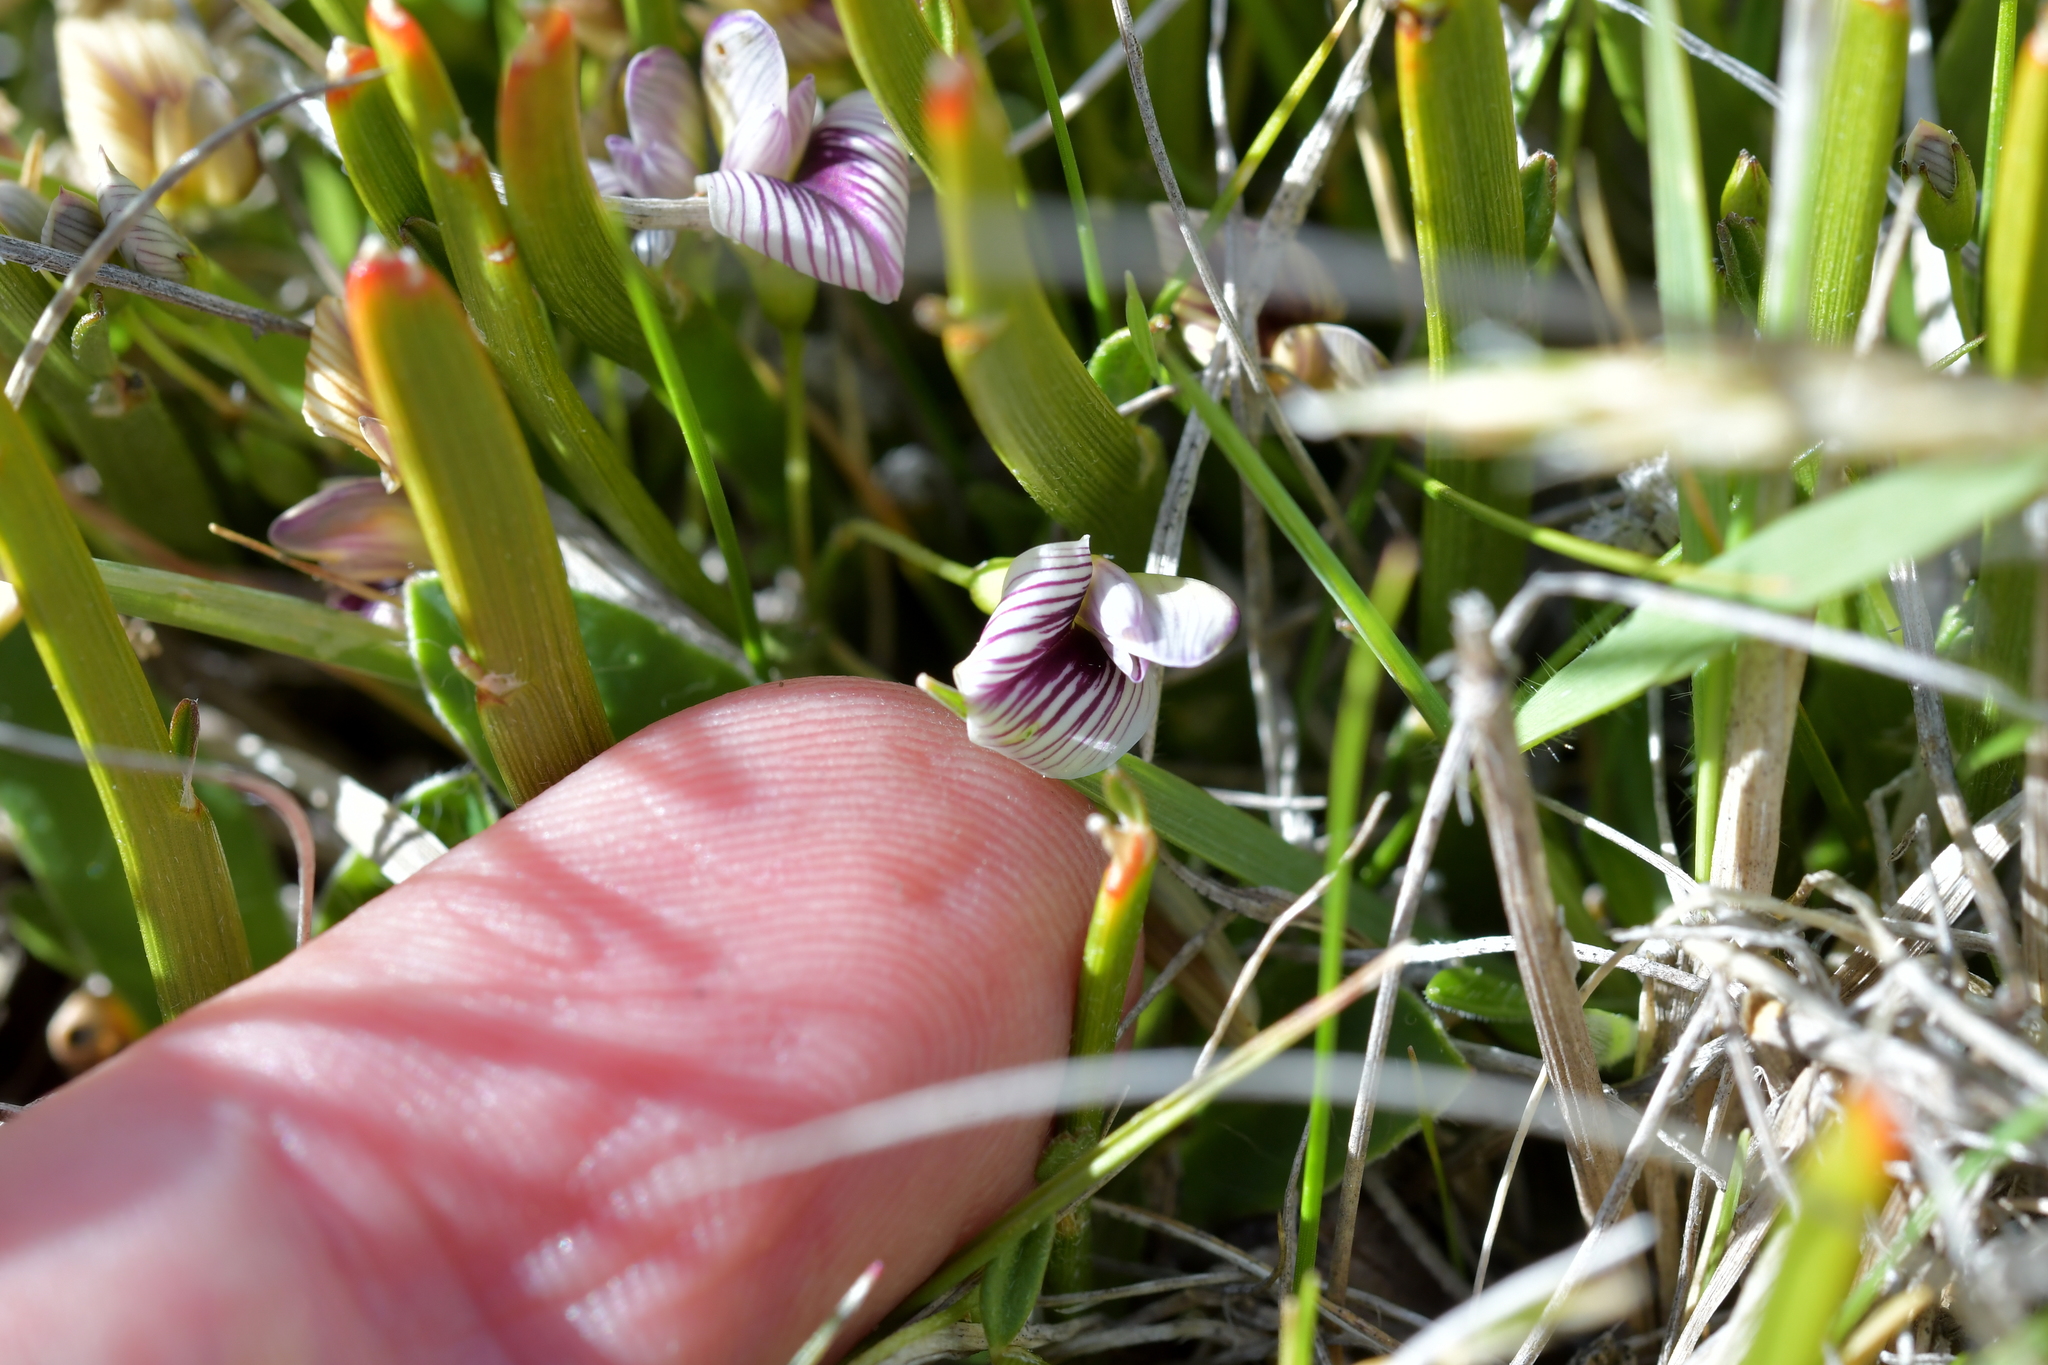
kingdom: Plantae
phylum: Tracheophyta
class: Magnoliopsida
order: Fabales
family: Fabaceae
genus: Carmichaelia
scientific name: Carmichaelia vexillata
